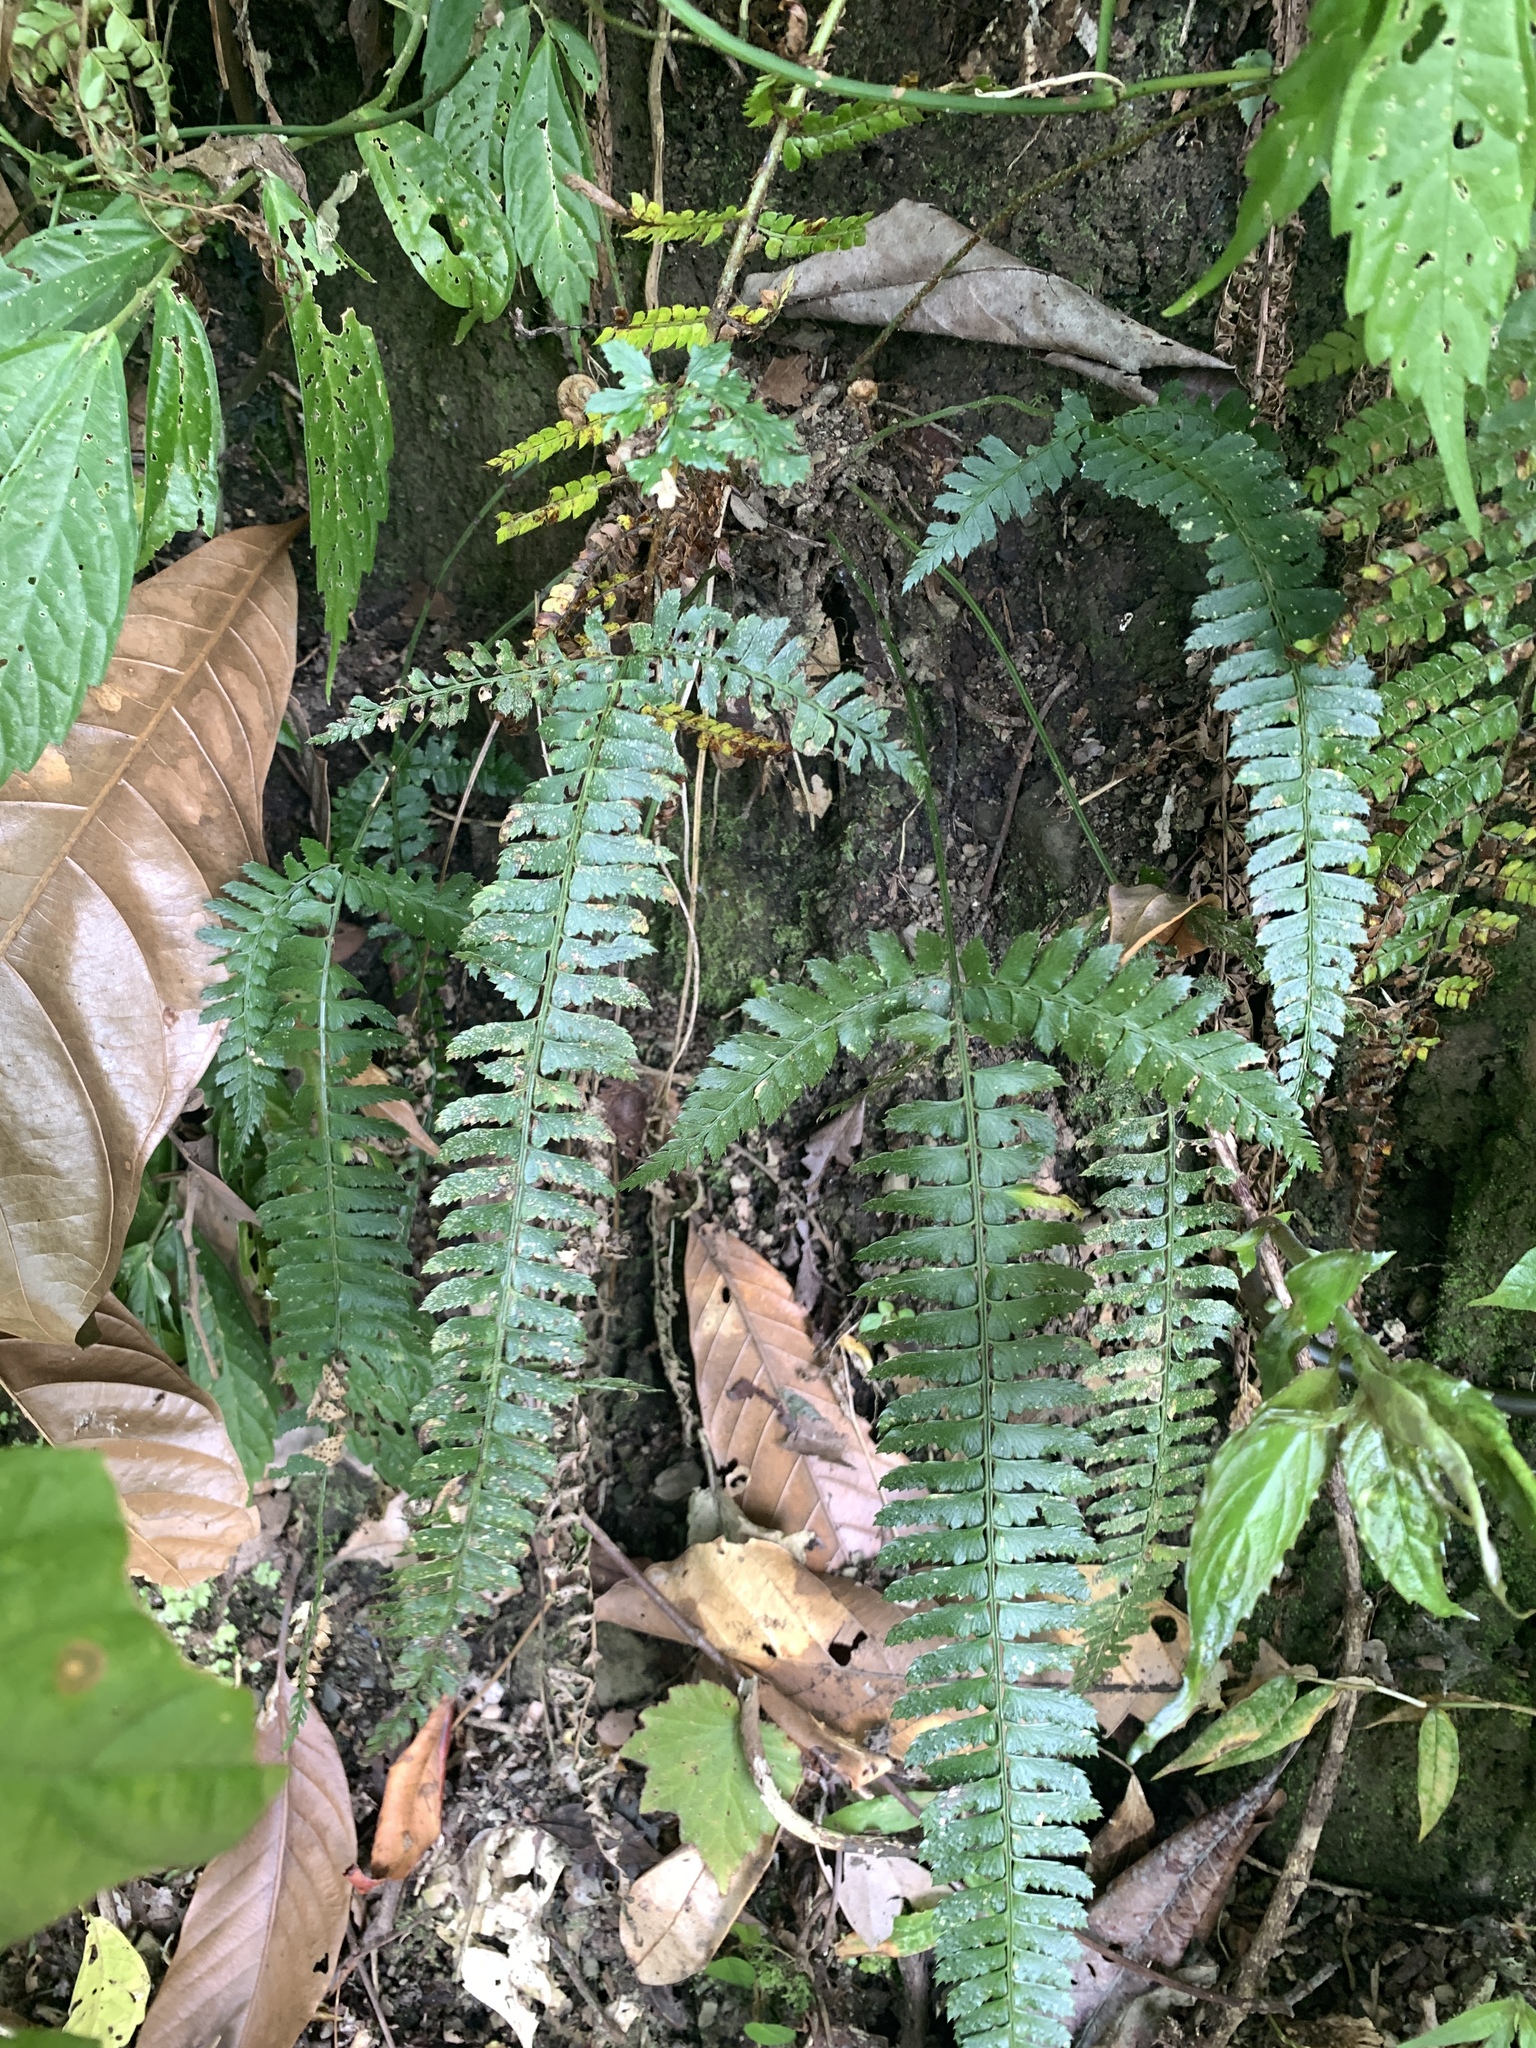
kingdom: Plantae
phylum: Tracheophyta
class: Polypodiopsida
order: Polypodiales
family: Dryopteridaceae
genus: Polystichum
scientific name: Polystichum hancockii
